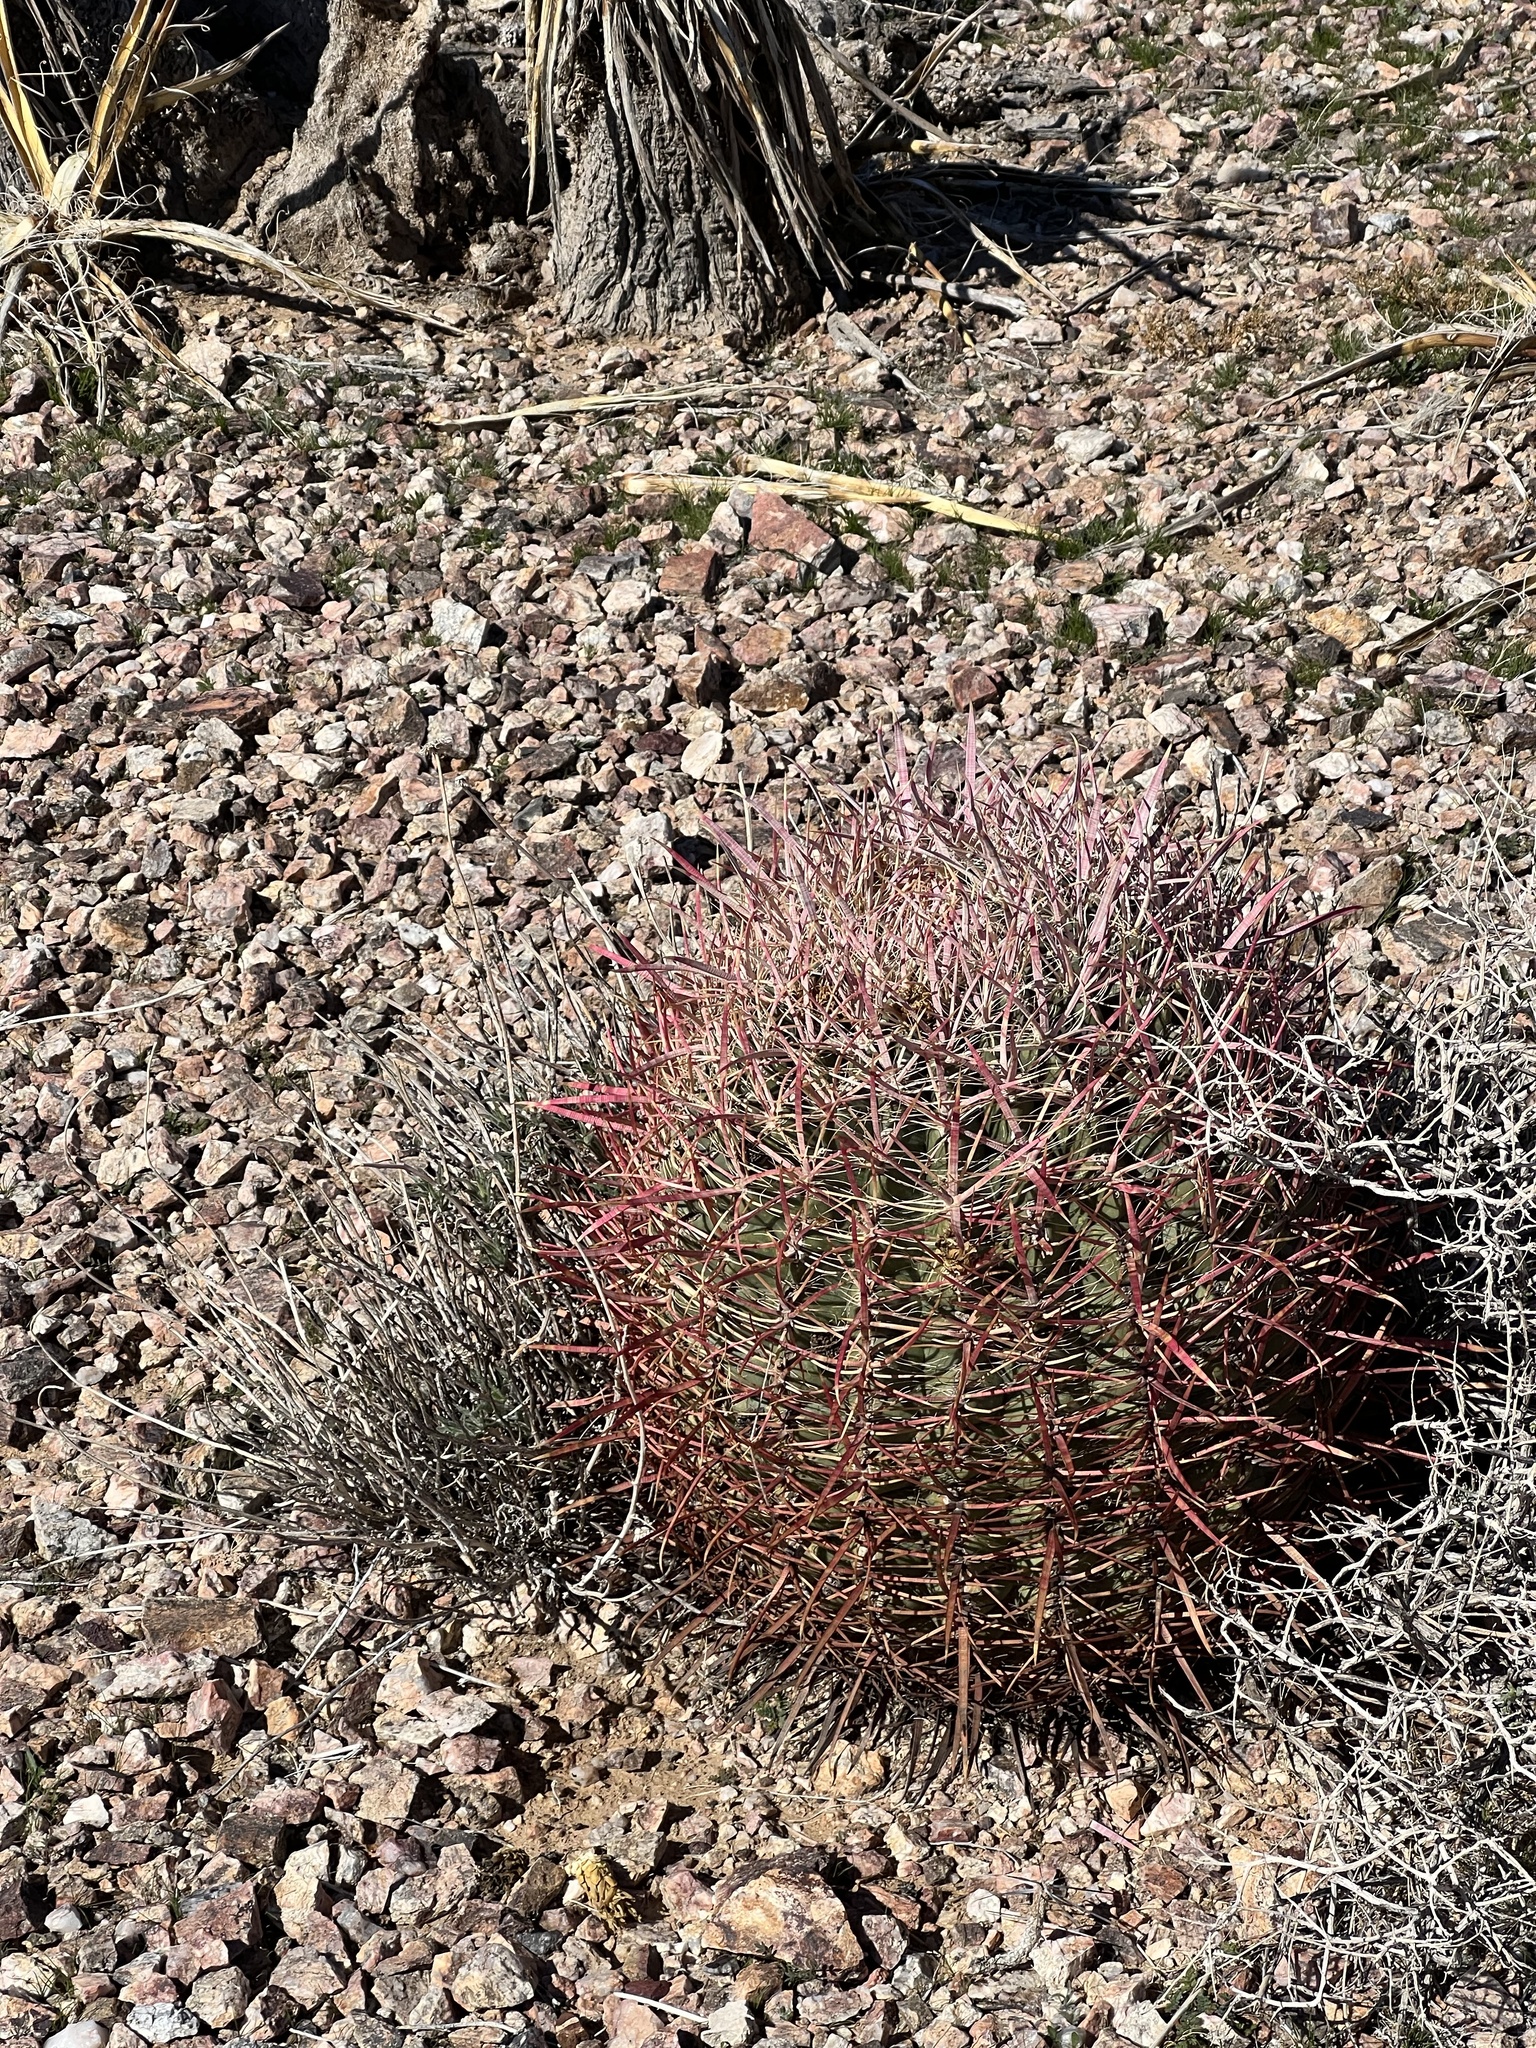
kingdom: Plantae
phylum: Tracheophyta
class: Magnoliopsida
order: Caryophyllales
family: Cactaceae
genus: Ferocactus
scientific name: Ferocactus cylindraceus
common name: California barrel cactus
